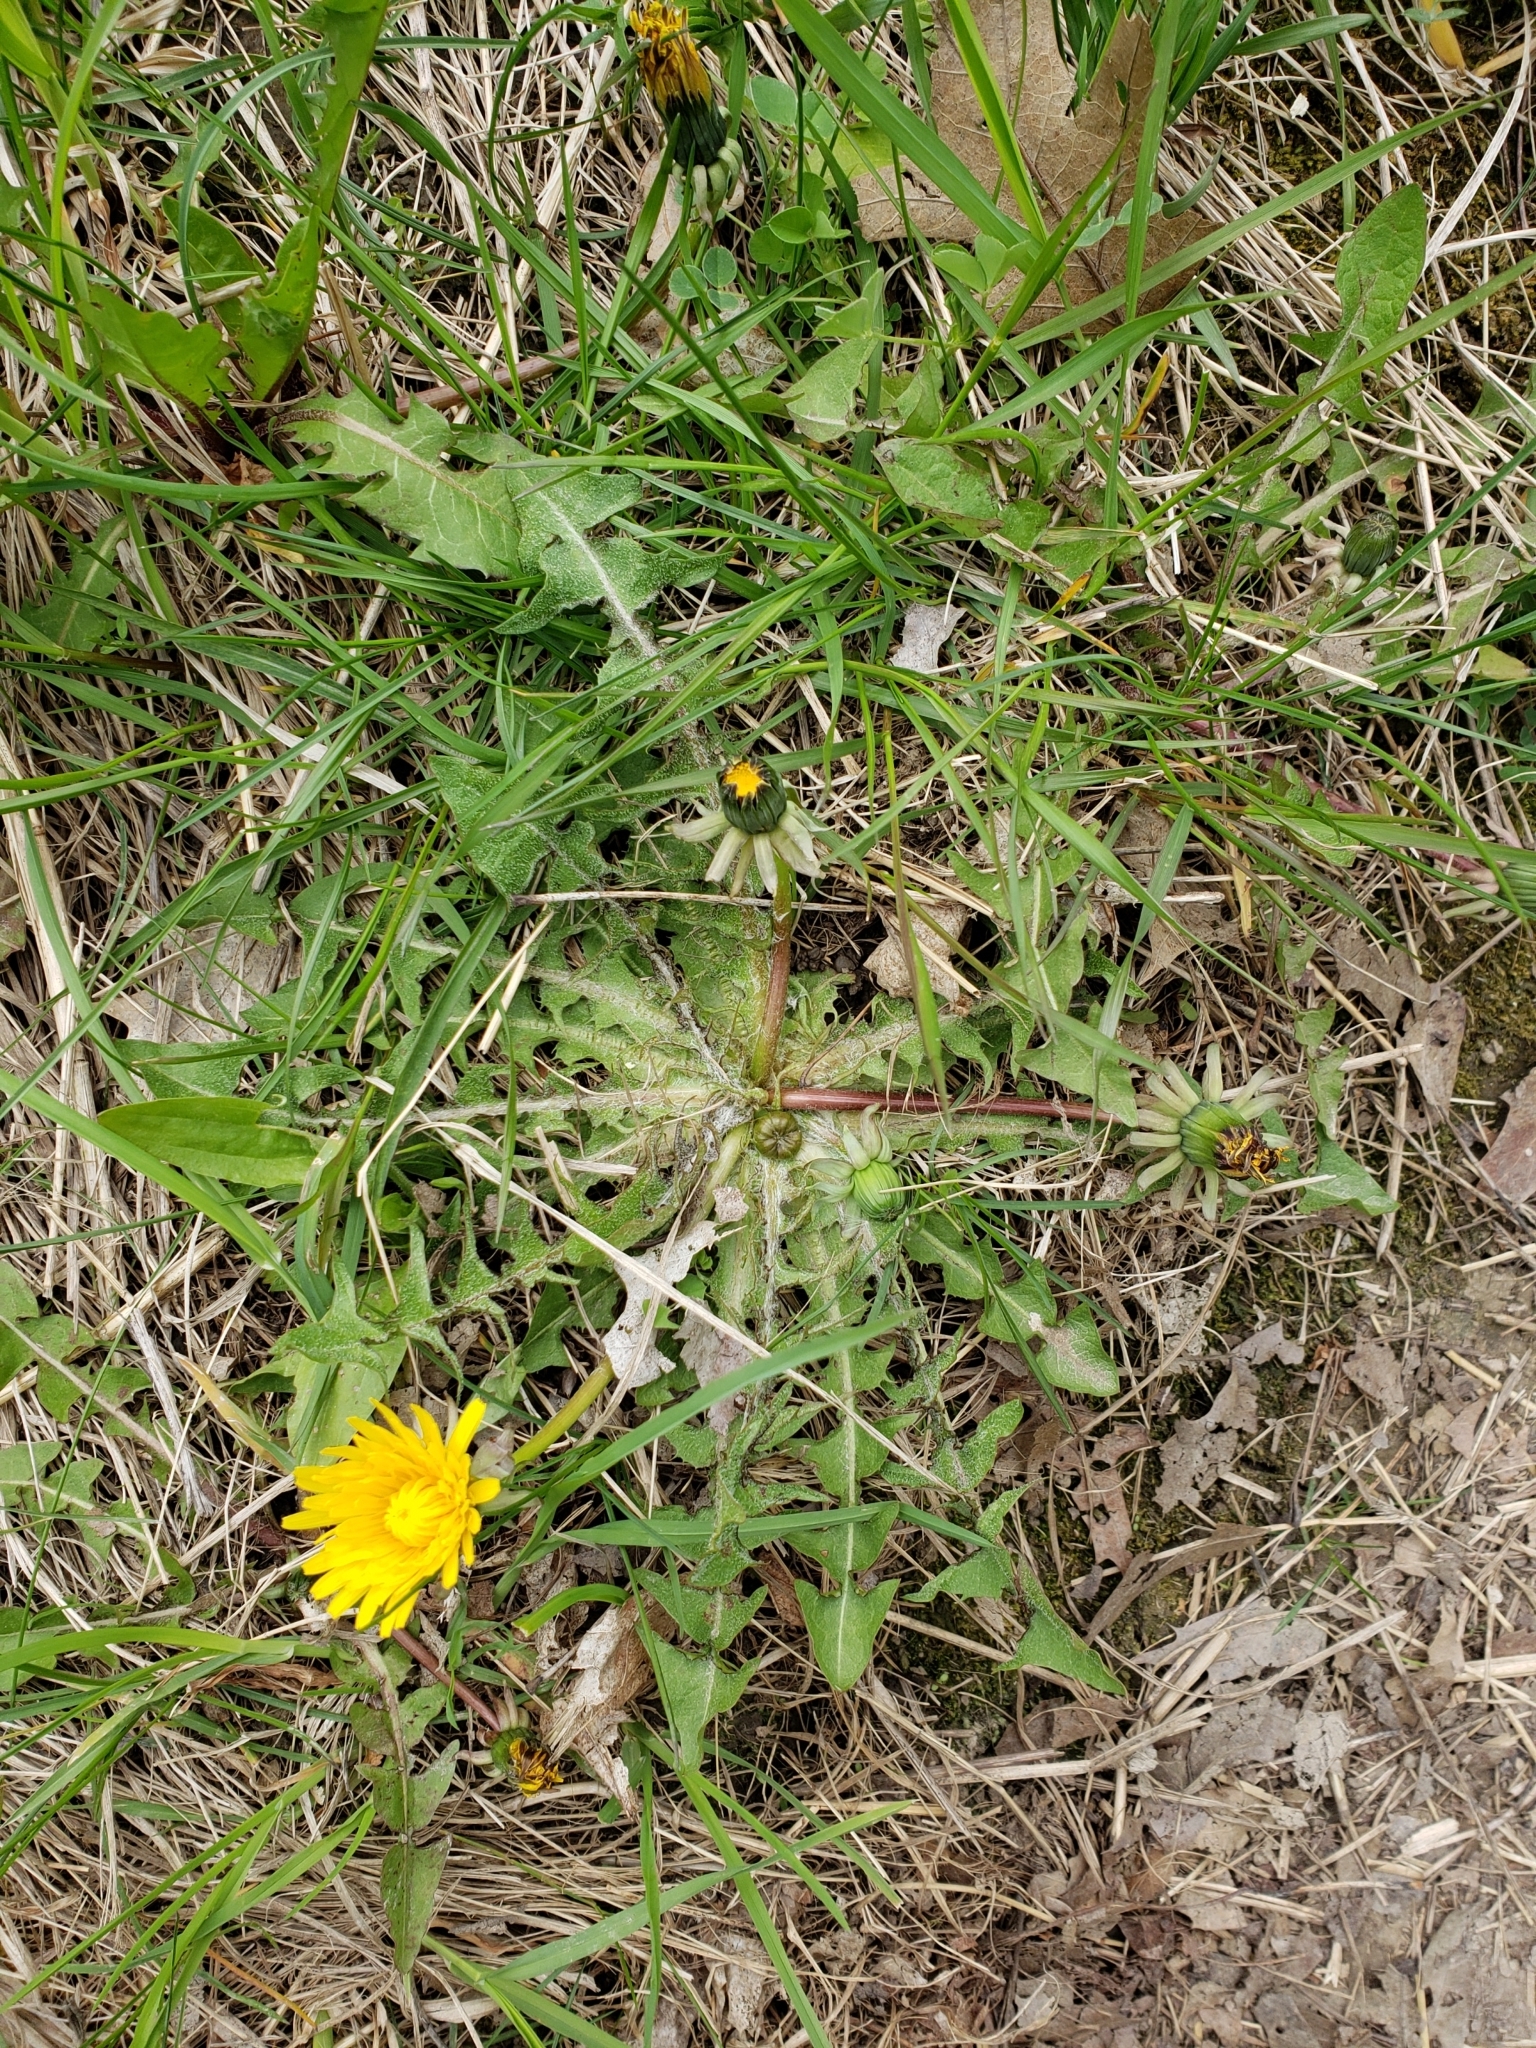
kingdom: Plantae
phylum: Tracheophyta
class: Magnoliopsida
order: Asterales
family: Asteraceae
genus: Taraxacum
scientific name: Taraxacum officinale
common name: Common dandelion
